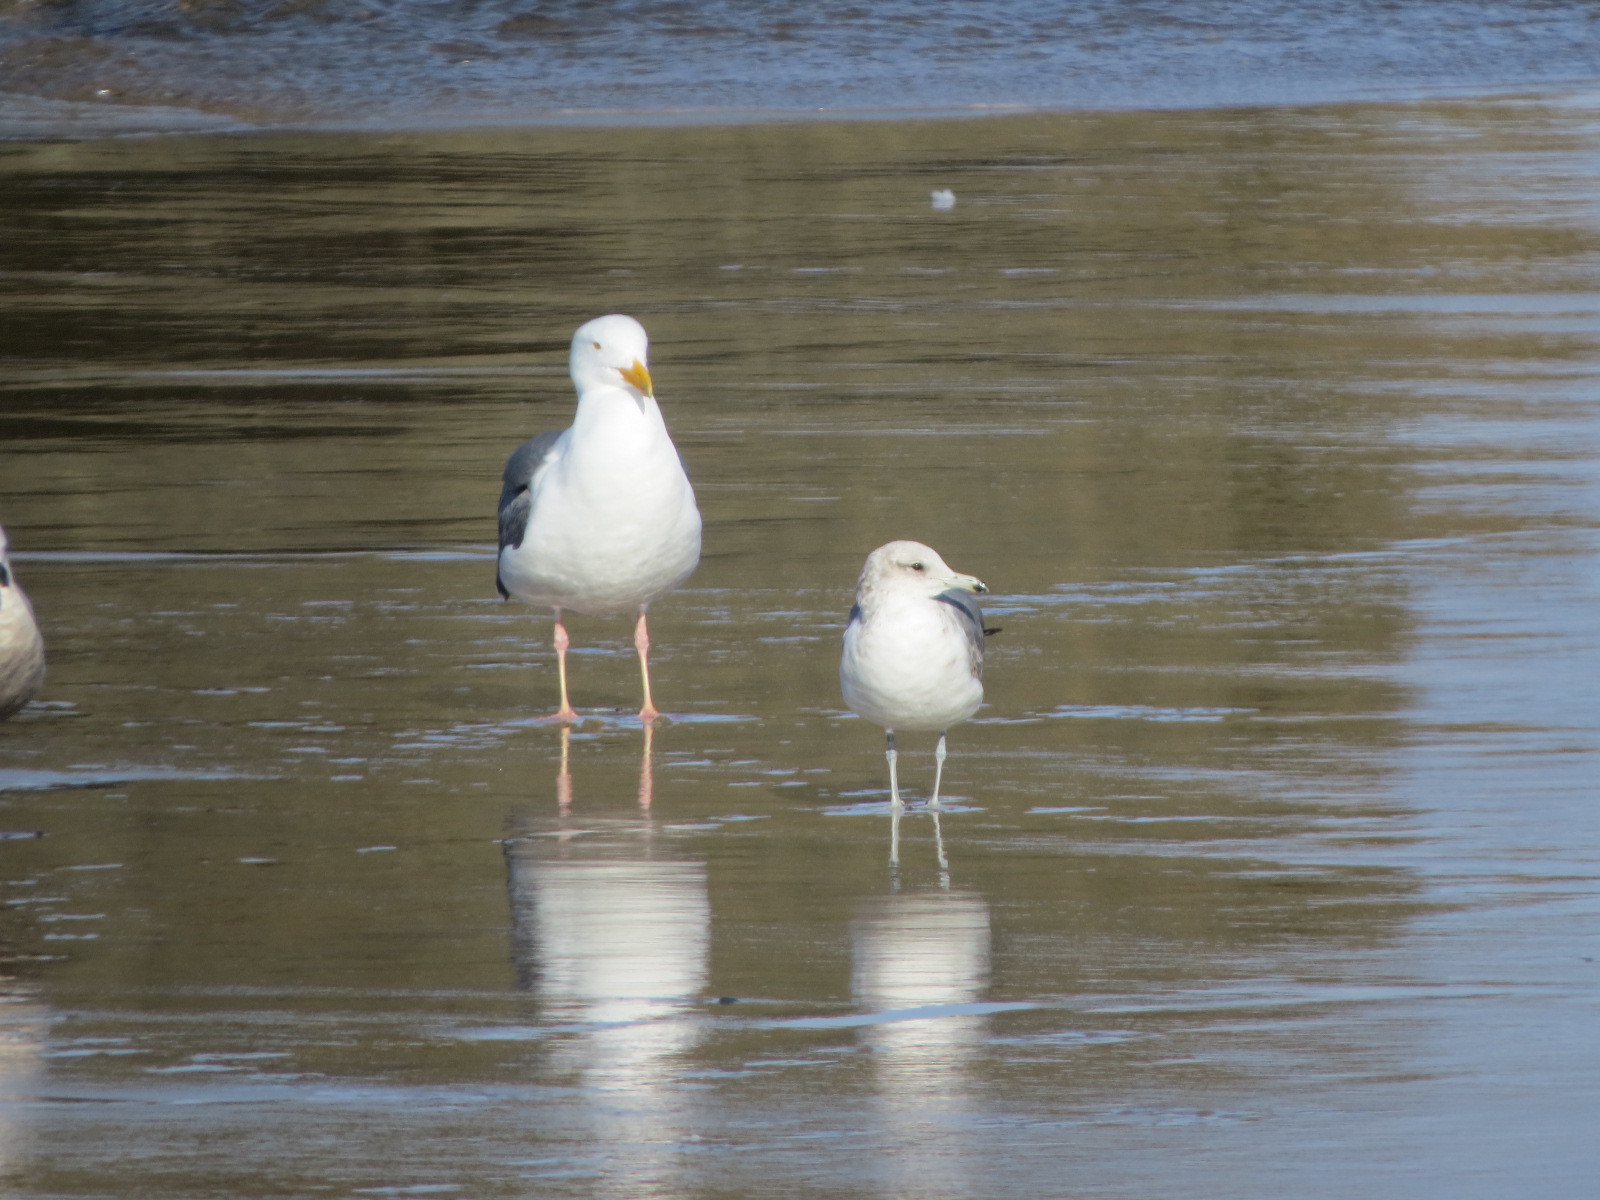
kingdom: Animalia
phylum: Chordata
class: Aves
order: Charadriiformes
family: Laridae
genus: Larus
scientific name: Larus californicus
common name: California gull
